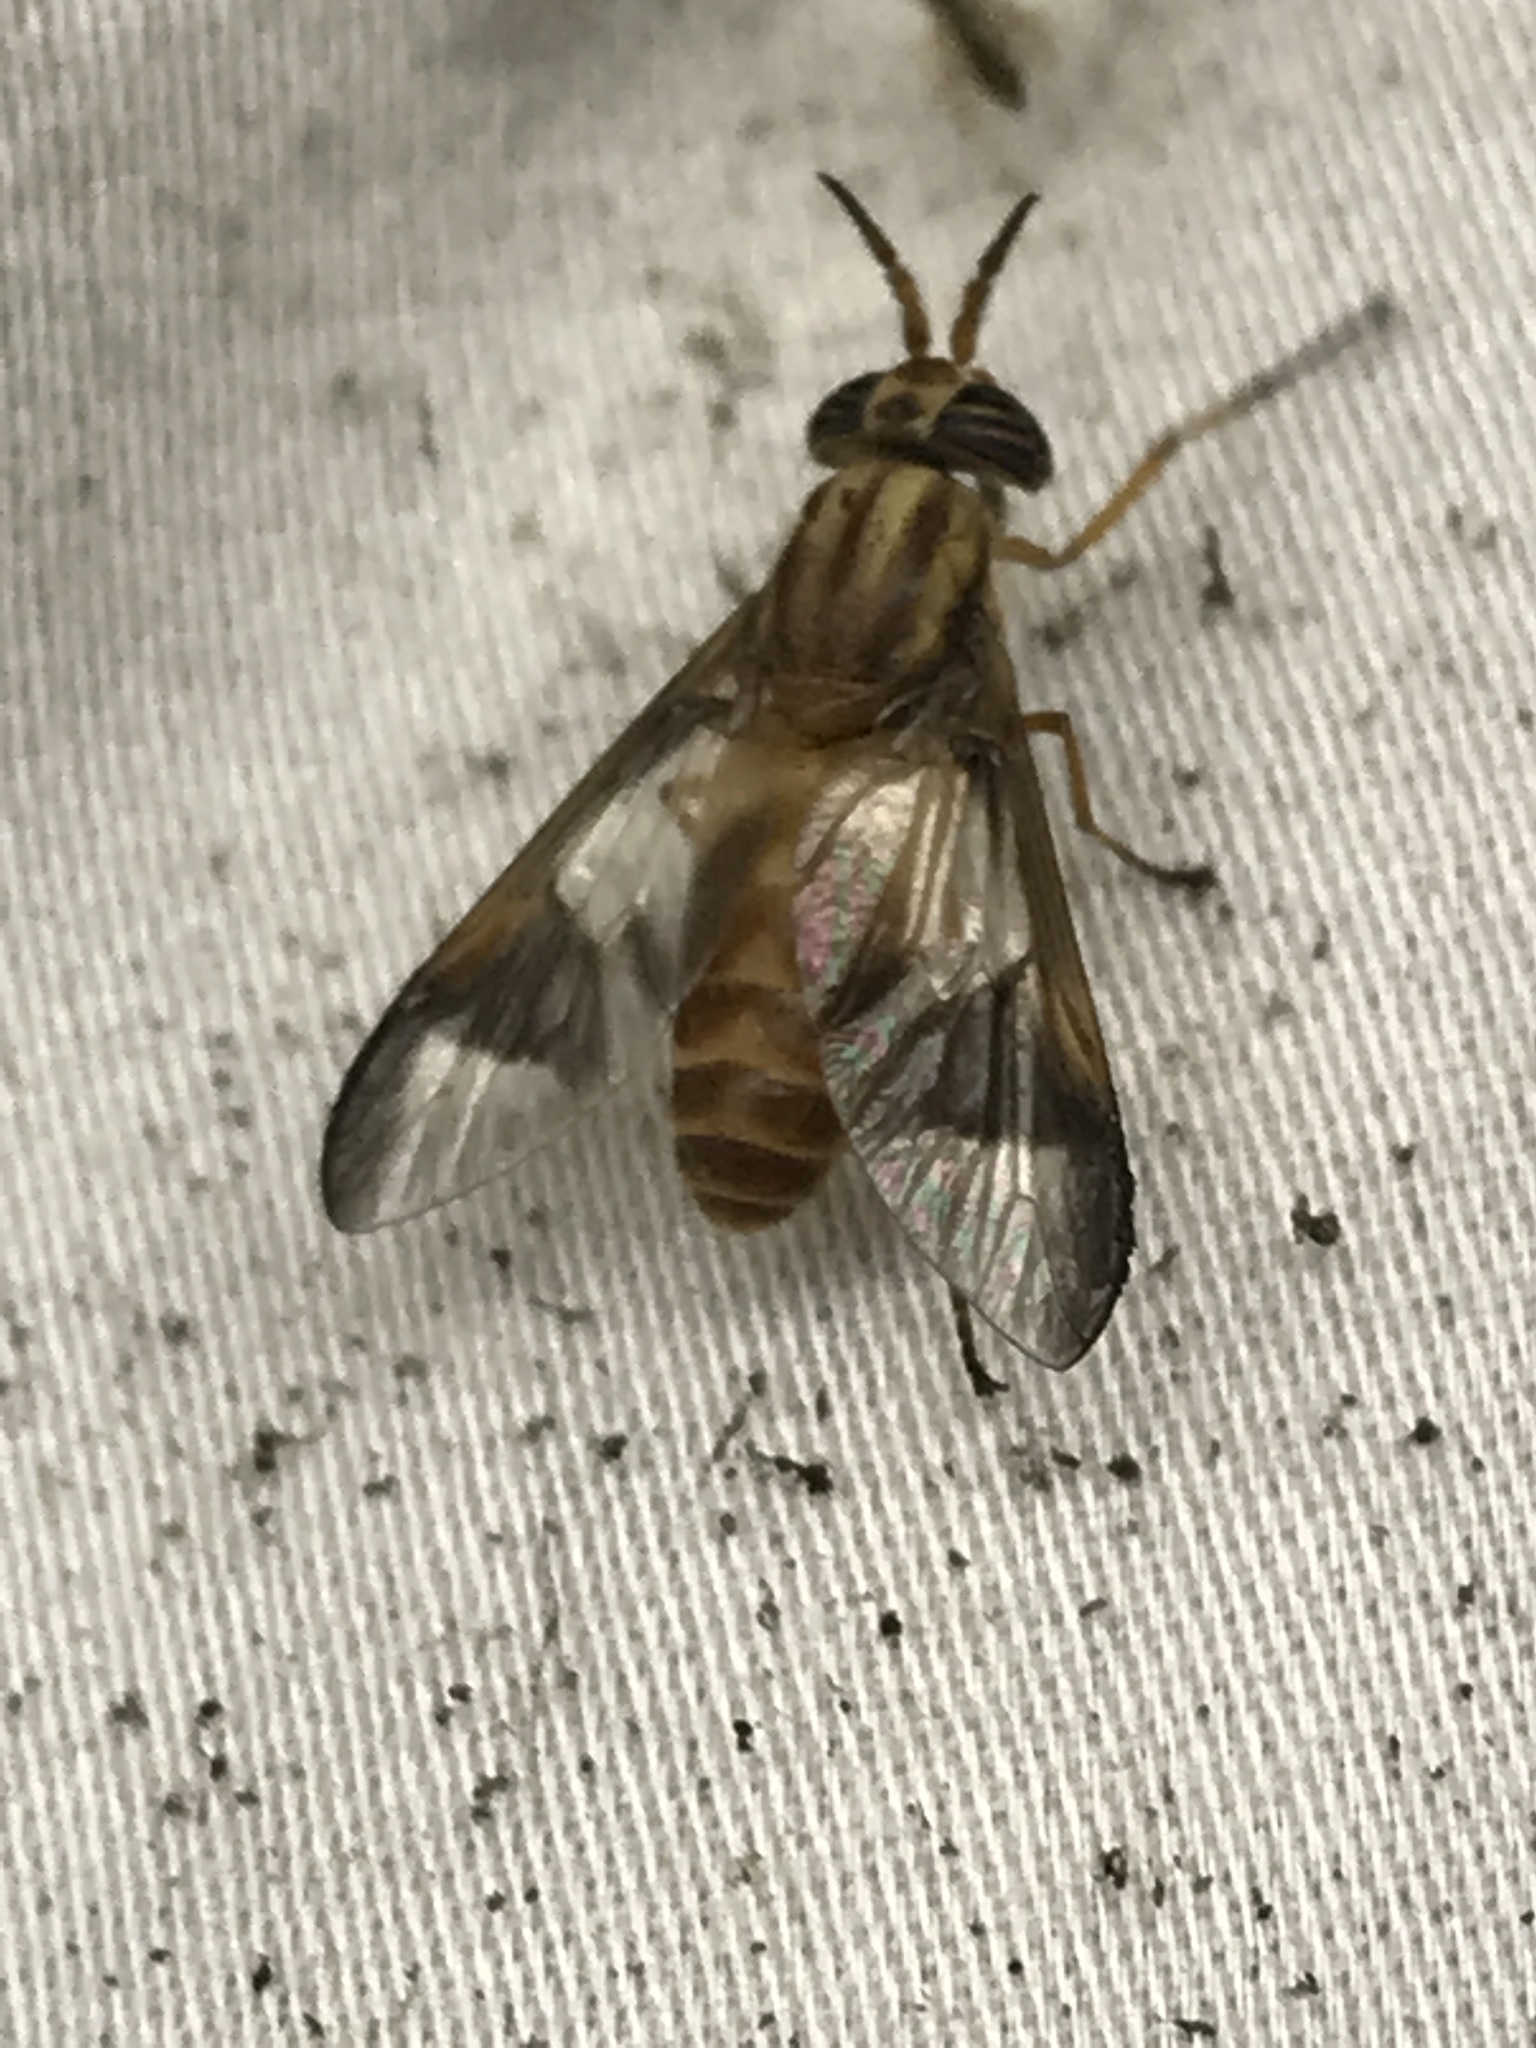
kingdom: Animalia
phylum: Arthropoda
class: Insecta
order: Diptera
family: Tabanidae
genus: Chrysops
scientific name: Chrysops flavidus
